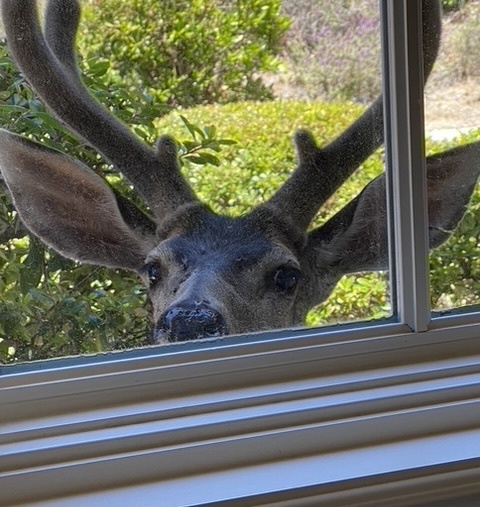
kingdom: Animalia
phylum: Chordata
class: Mammalia
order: Artiodactyla
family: Cervidae
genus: Odocoileus
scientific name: Odocoileus hemionus
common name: Mule deer
